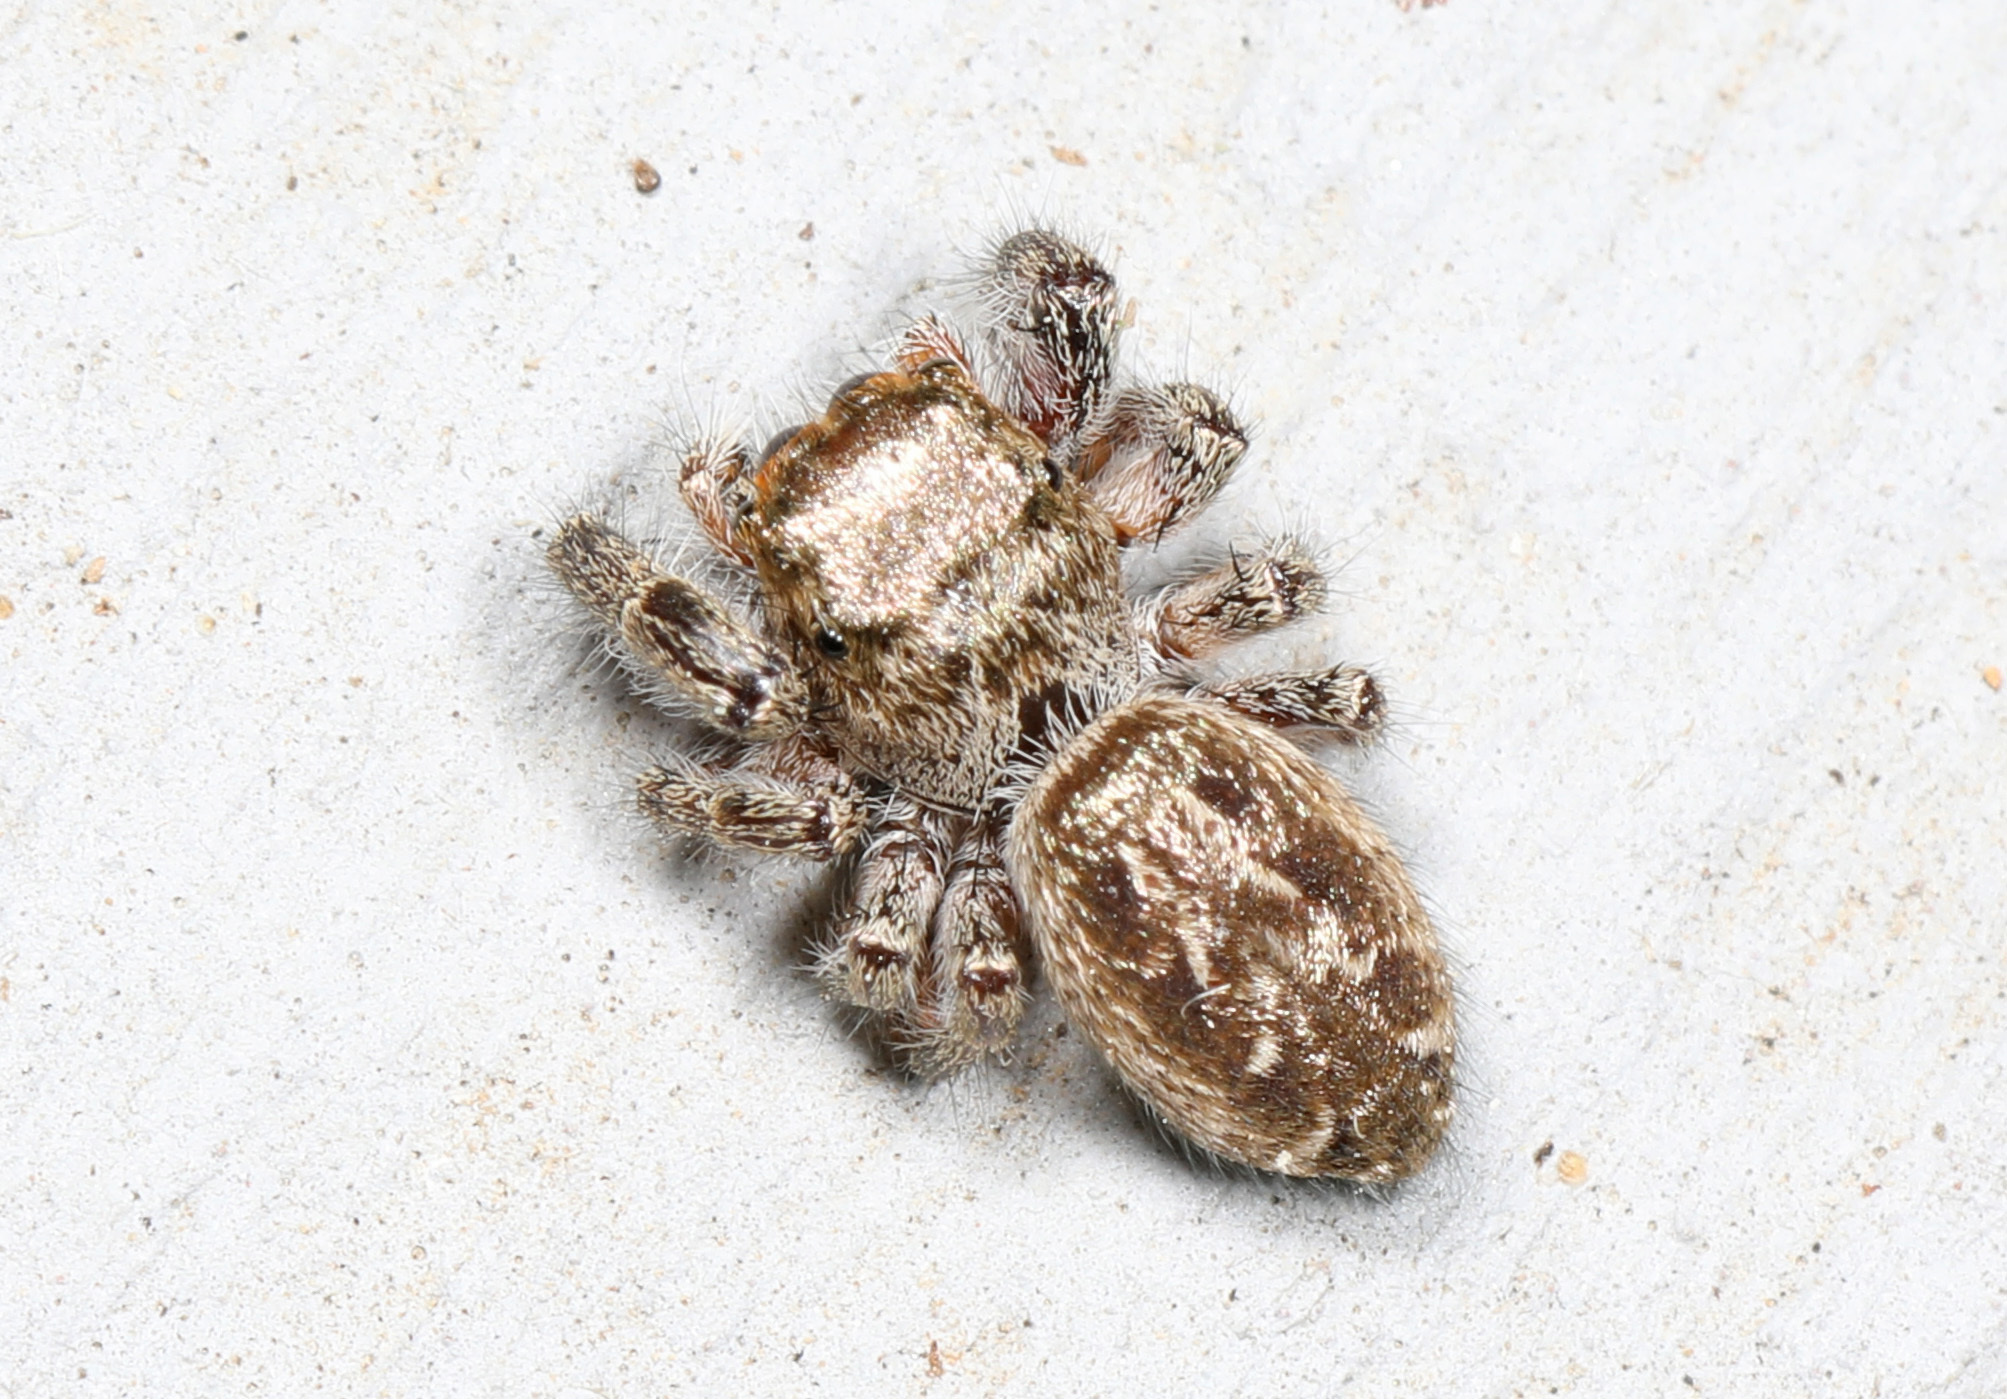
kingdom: Animalia
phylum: Arthropoda
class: Arachnida
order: Araneae
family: Salticidae
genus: Eris
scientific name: Eris militaris
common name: Bronze jumper
